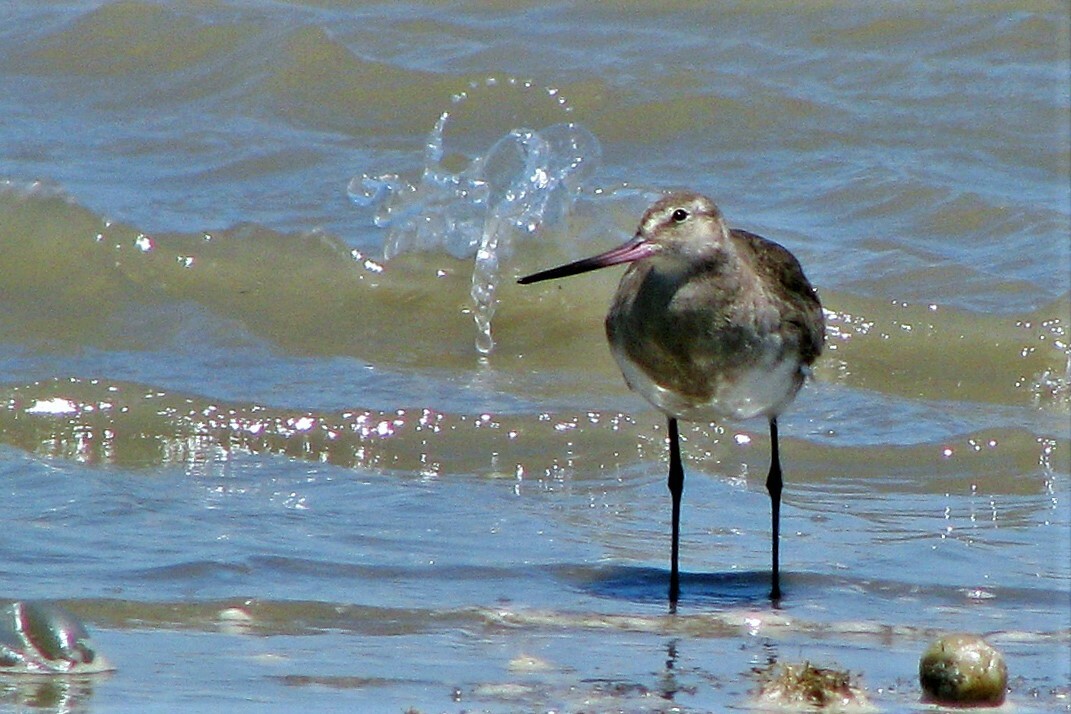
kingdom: Animalia
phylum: Chordata
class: Aves
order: Charadriiformes
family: Scolopacidae
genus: Limosa
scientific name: Limosa haemastica
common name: Hudsonian godwit
